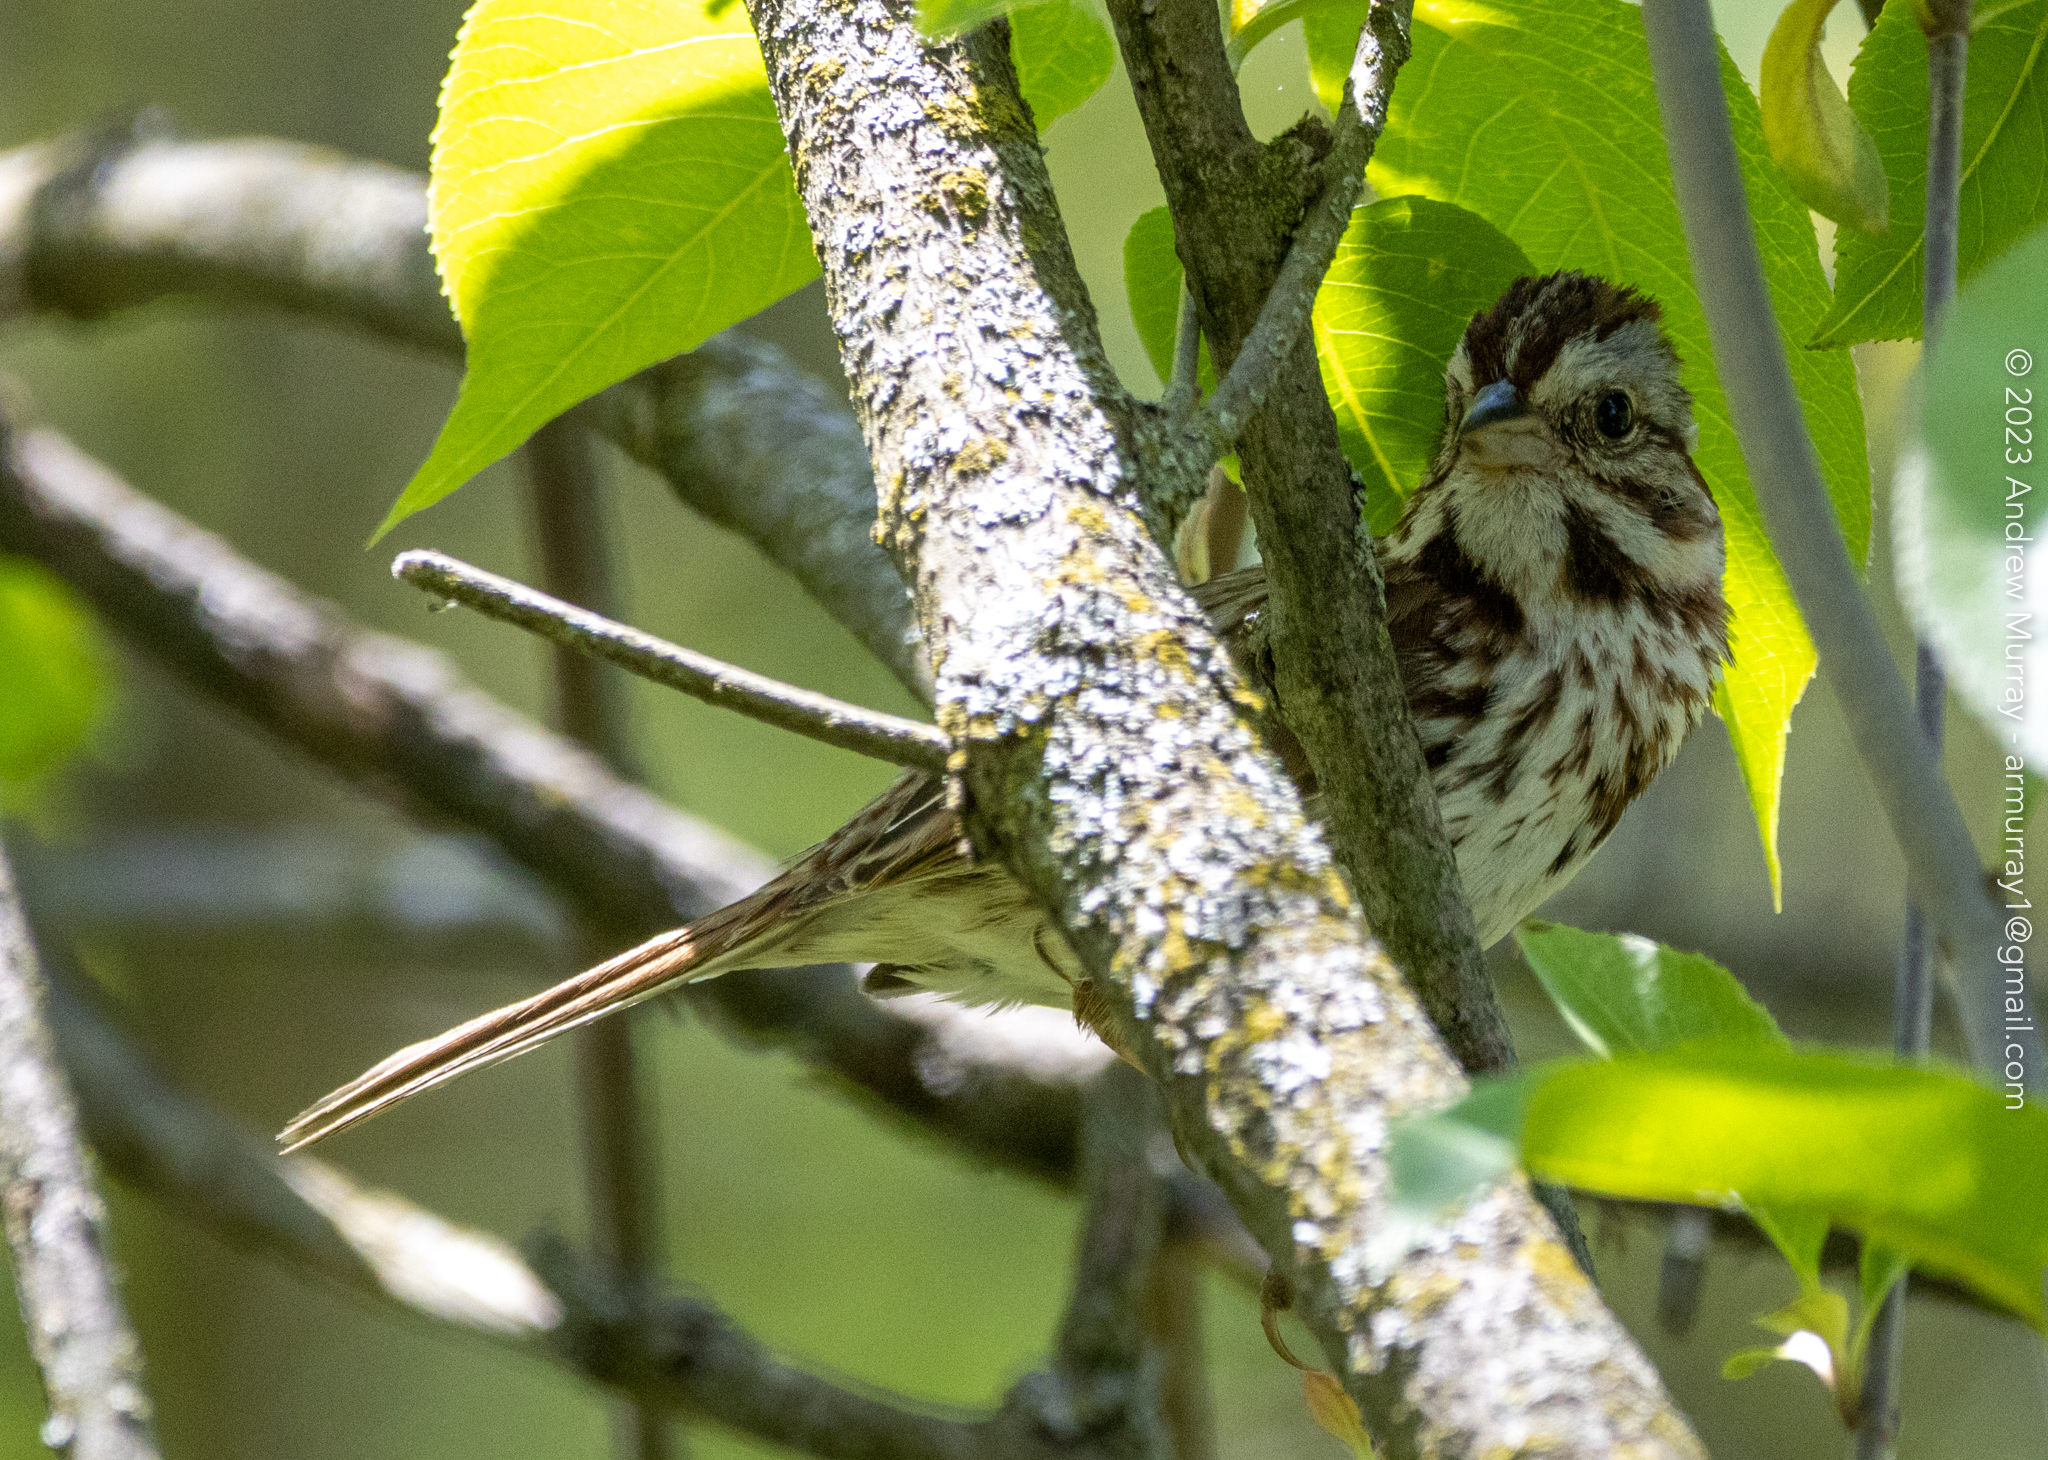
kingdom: Animalia
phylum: Chordata
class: Aves
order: Passeriformes
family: Passerellidae
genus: Melospiza
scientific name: Melospiza melodia
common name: Song sparrow
